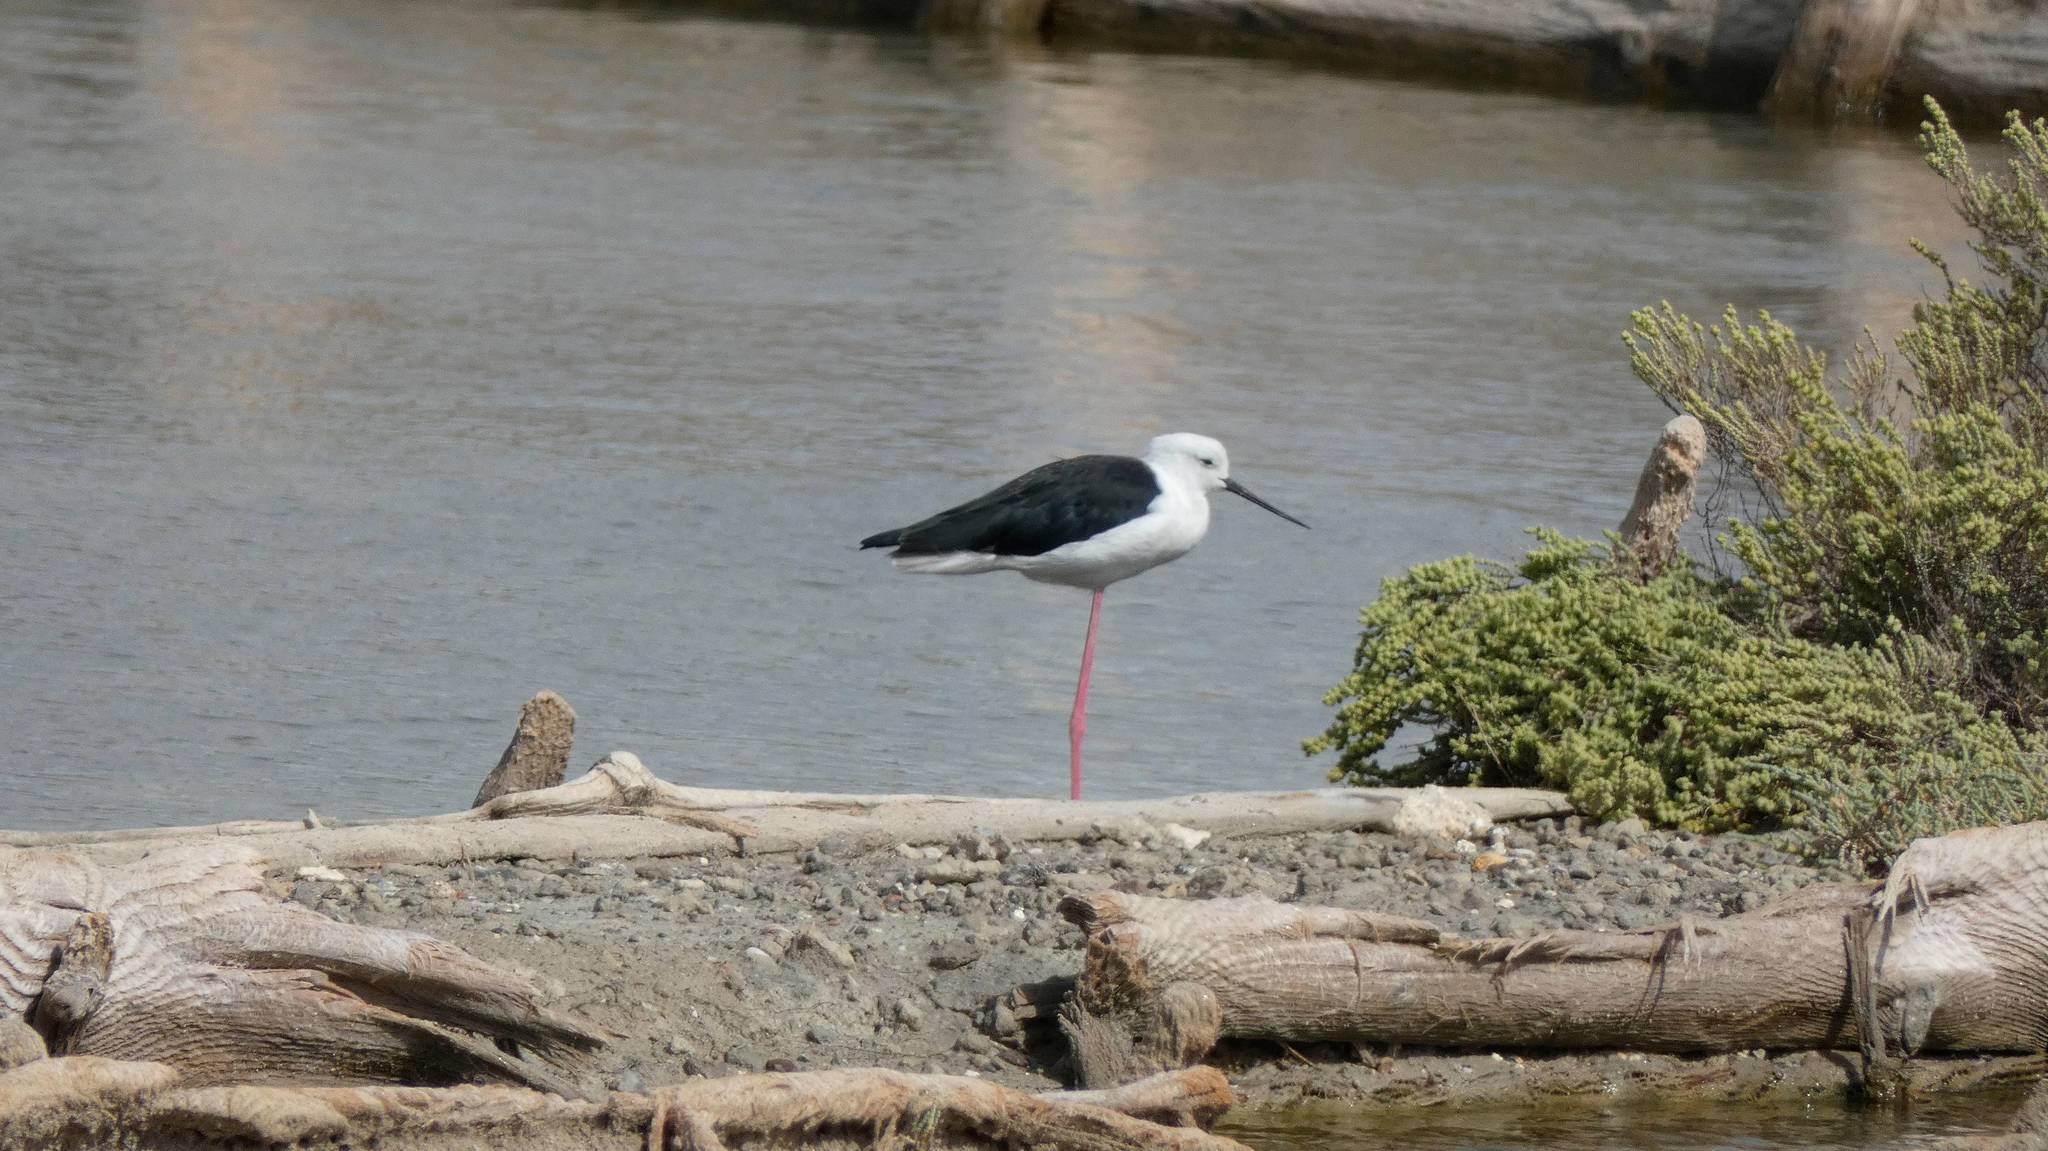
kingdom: Animalia
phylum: Chordata
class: Aves
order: Charadriiformes
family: Recurvirostridae
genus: Himantopus
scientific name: Himantopus himantopus
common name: Black-winged stilt
